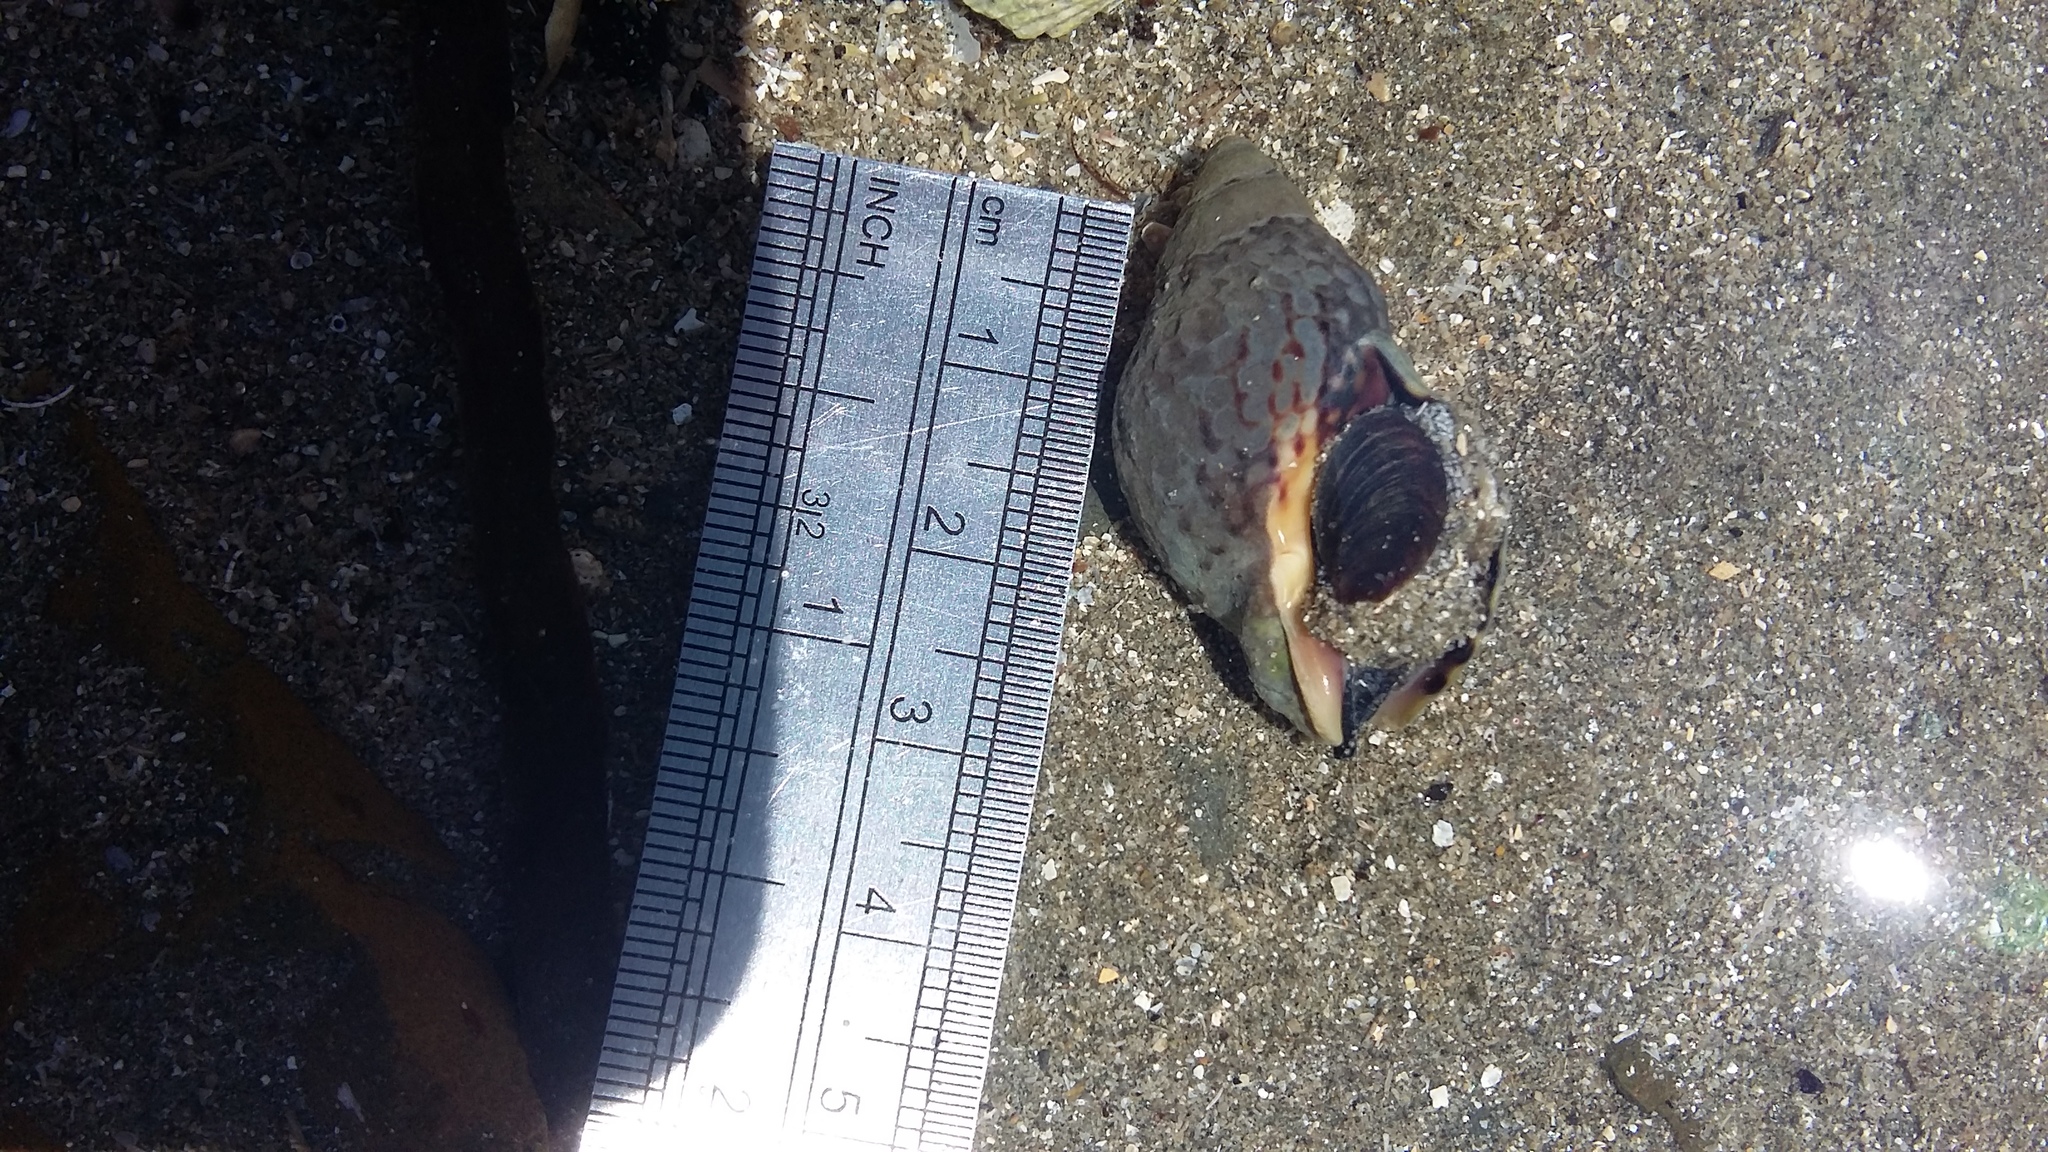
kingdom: Animalia
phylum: Mollusca
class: Gastropoda
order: Neogastropoda
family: Cominellidae
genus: Cominella
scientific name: Cominella maculosa
